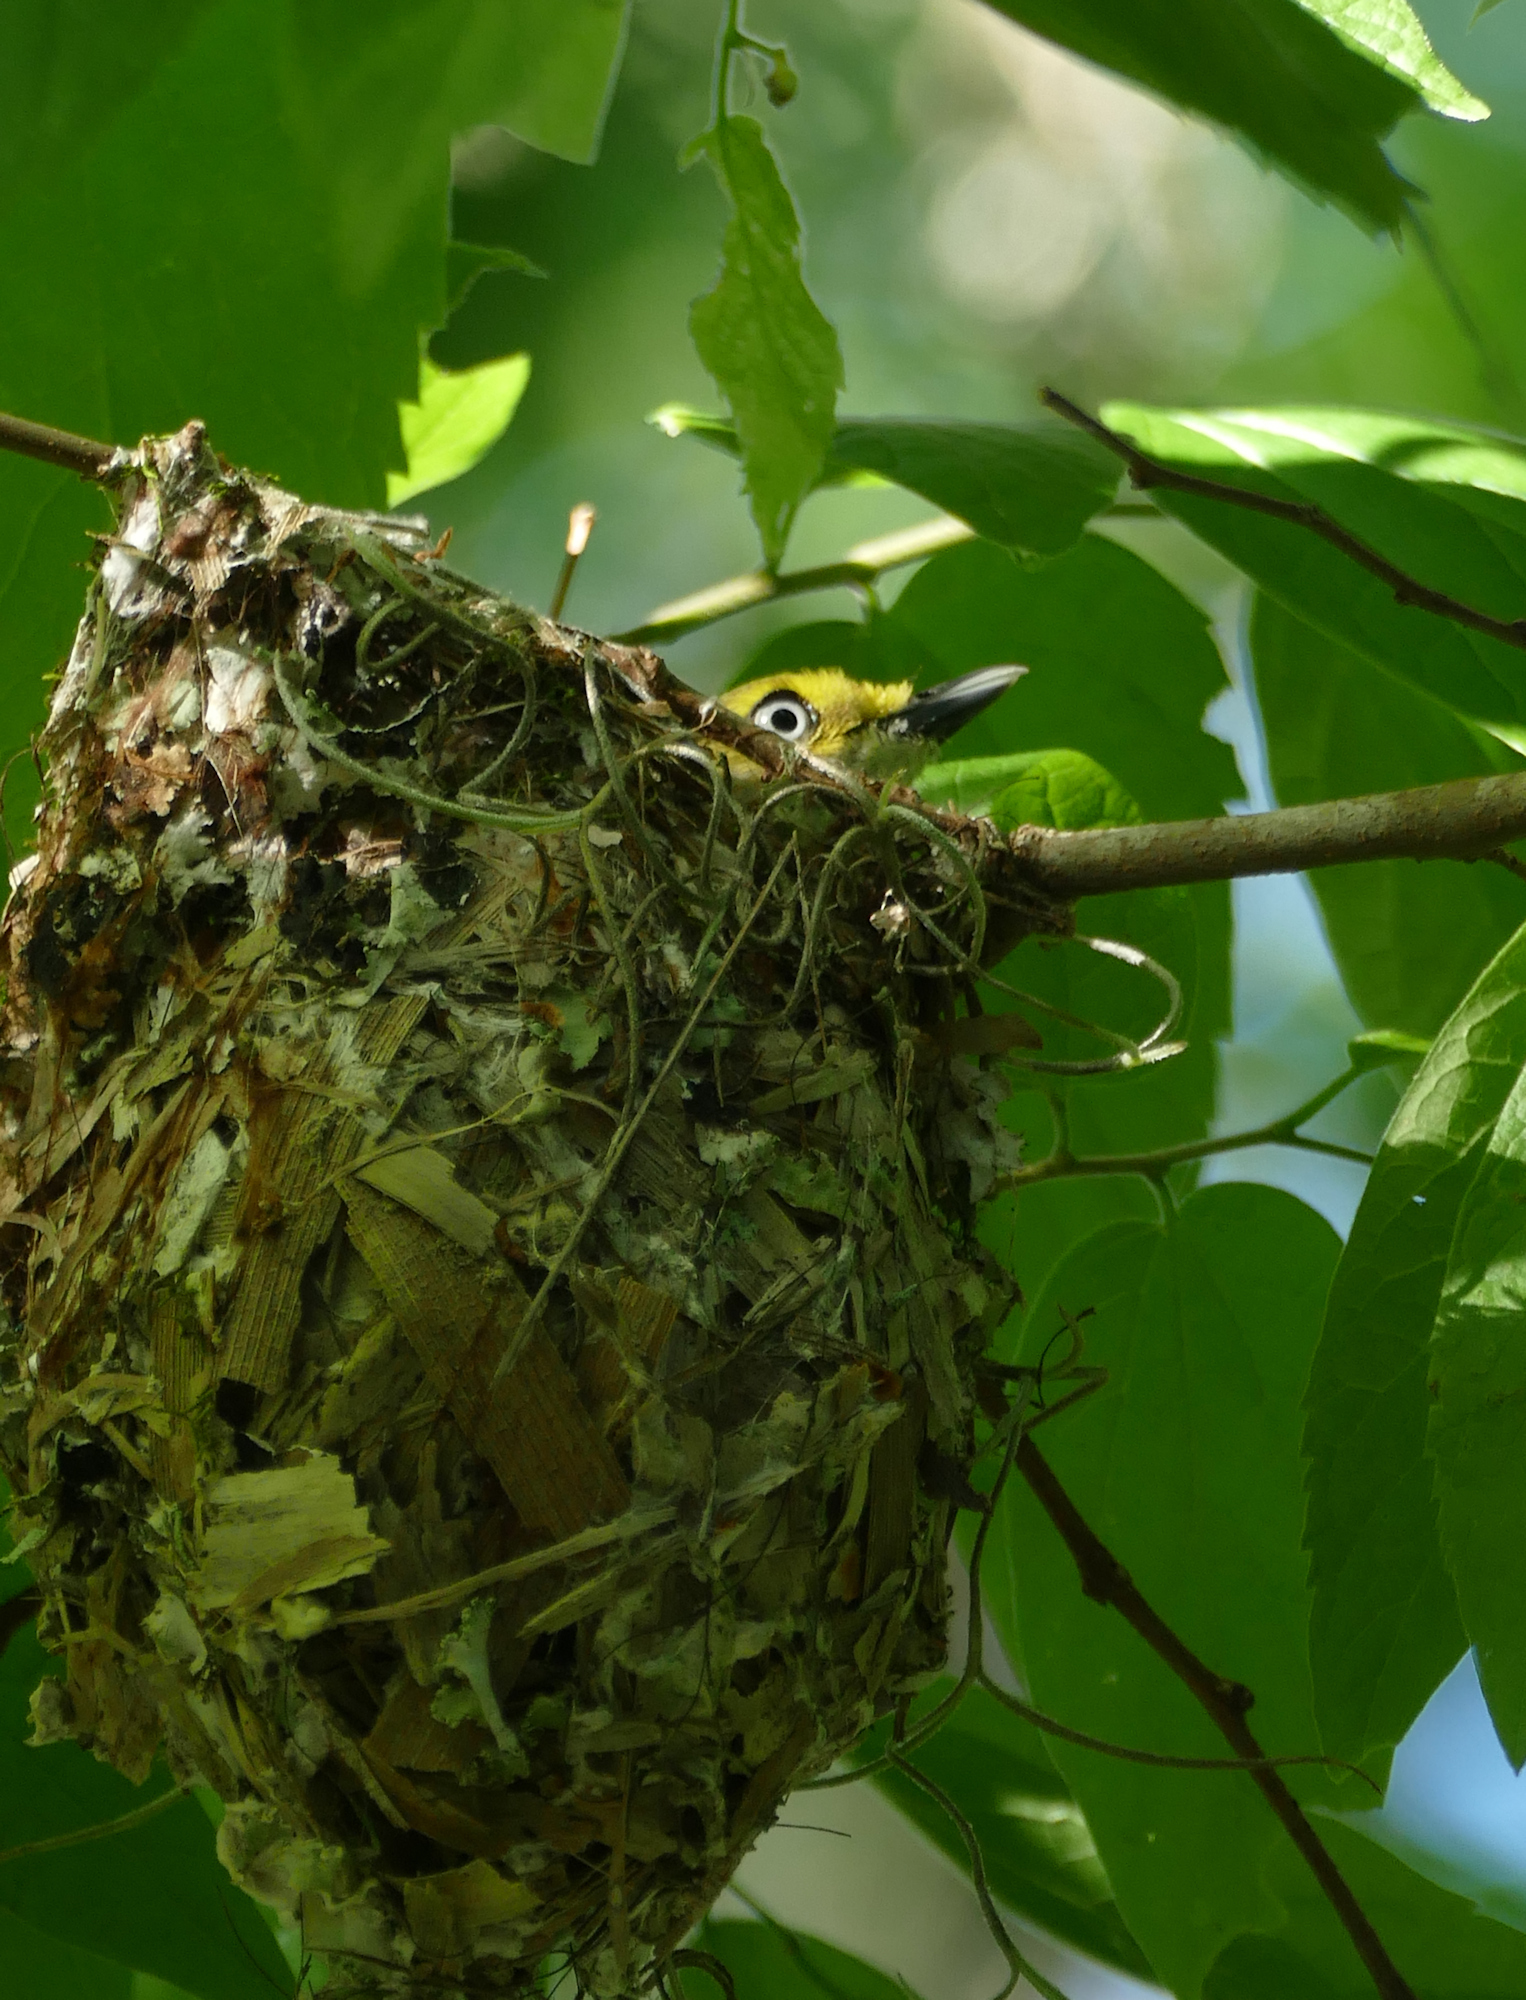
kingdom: Animalia
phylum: Chordata
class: Aves
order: Passeriformes
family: Vireonidae
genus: Vireo
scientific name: Vireo griseus
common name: White-eyed vireo
